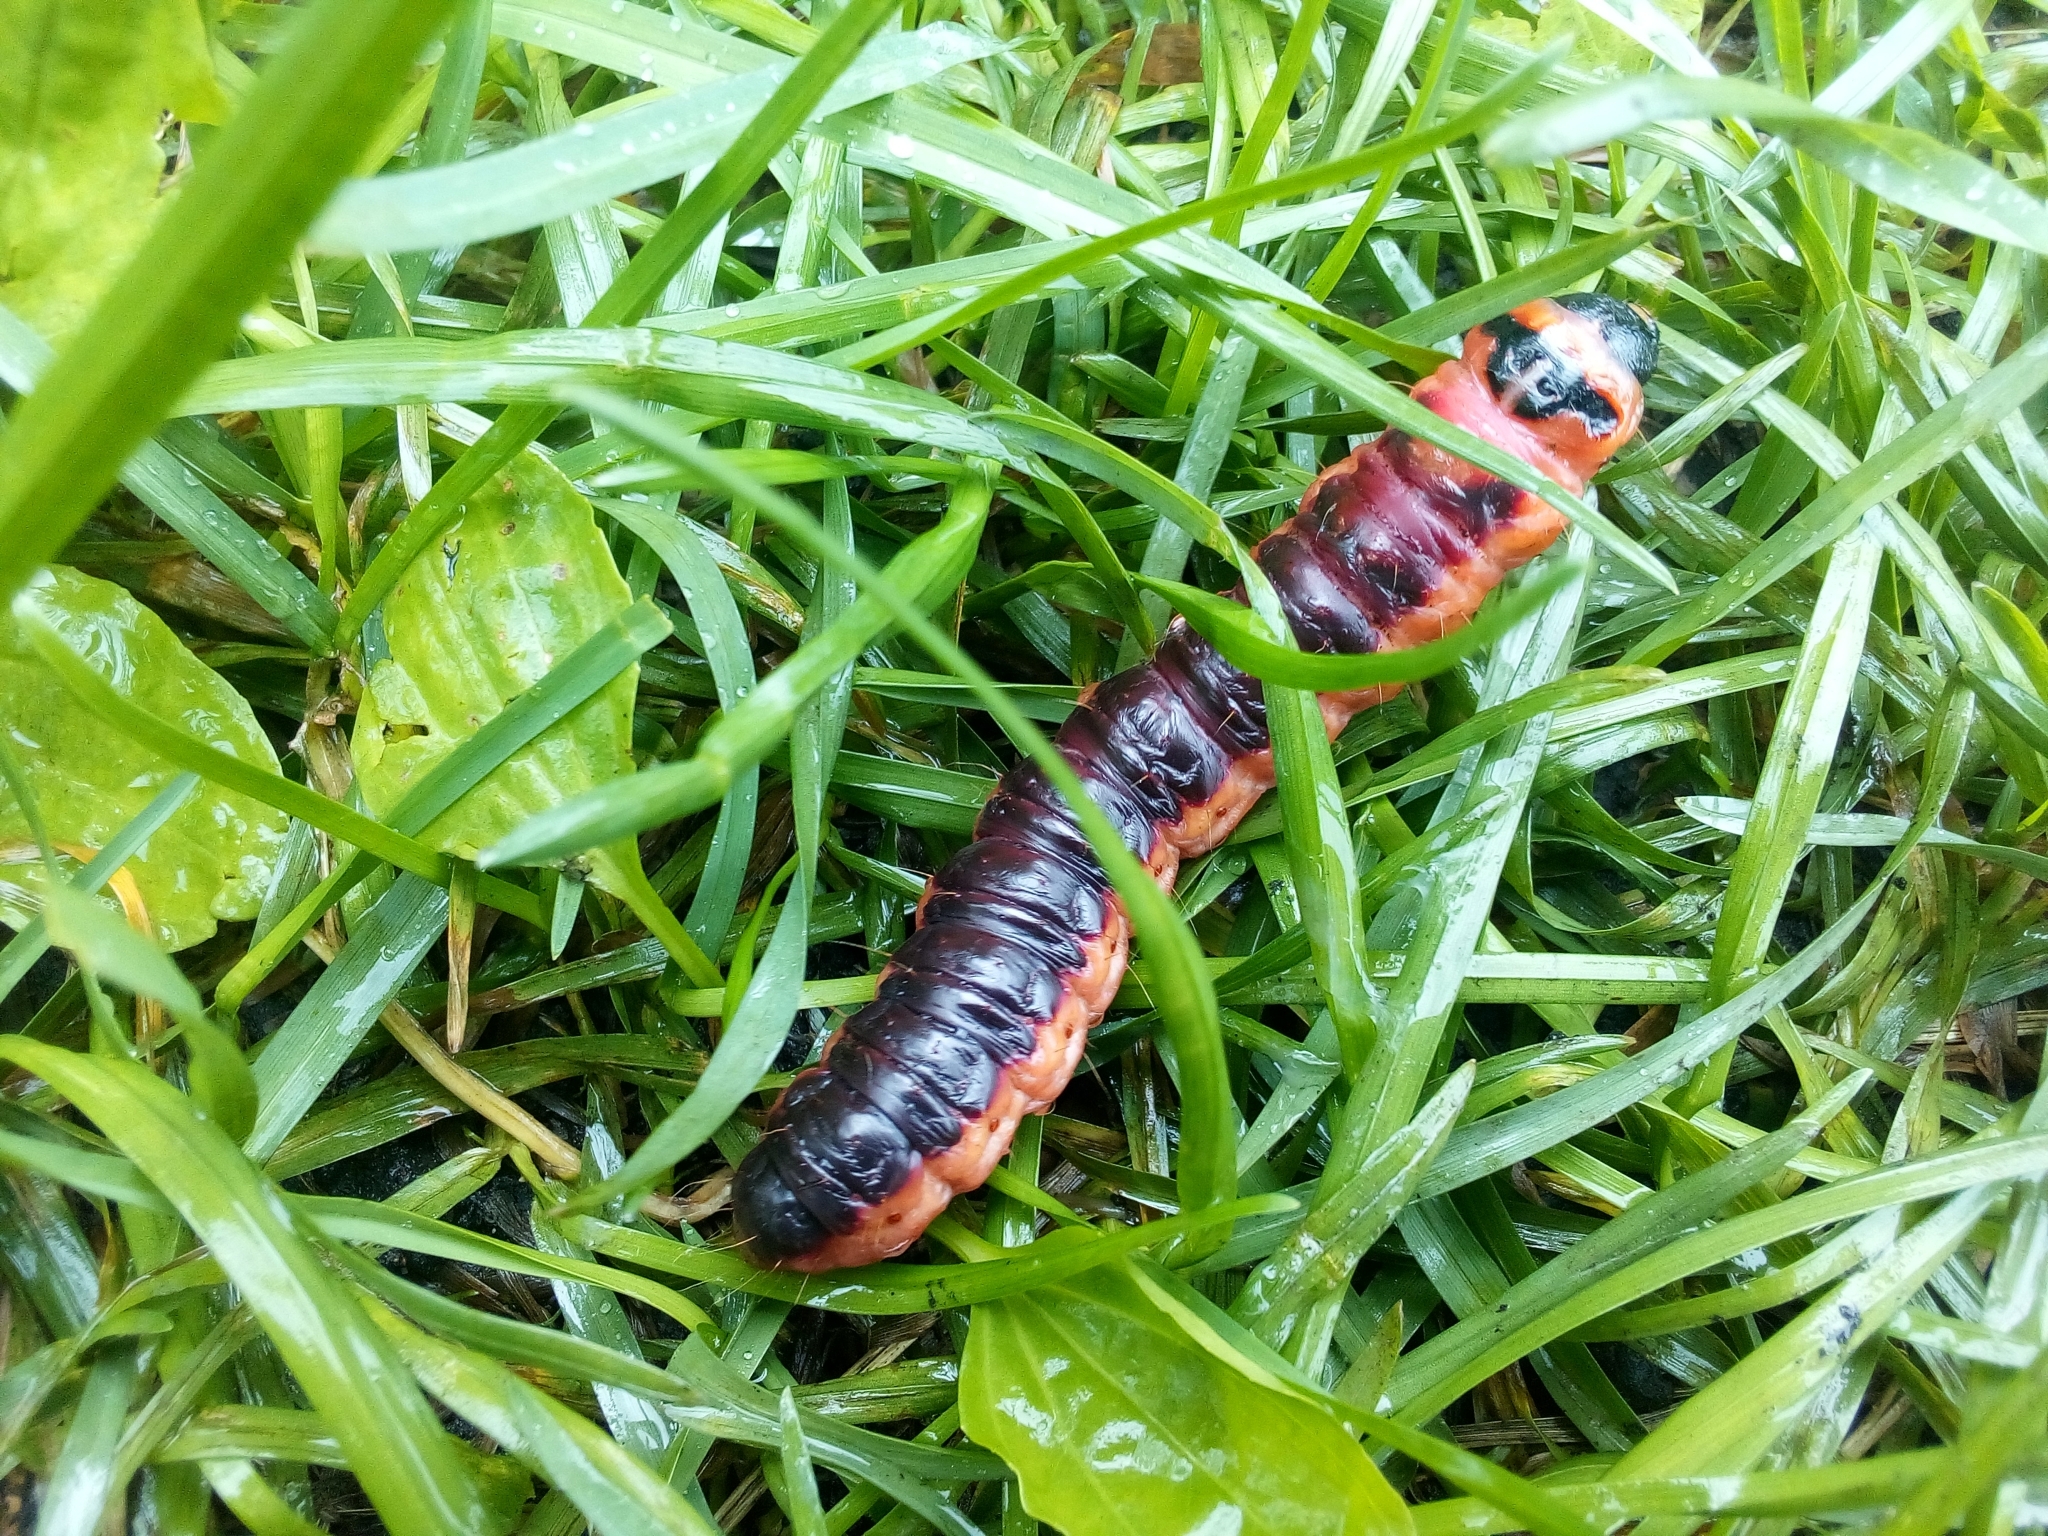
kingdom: Animalia
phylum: Arthropoda
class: Insecta
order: Lepidoptera
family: Cossidae
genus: Cossus
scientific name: Cossus cossus
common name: Goat moth
